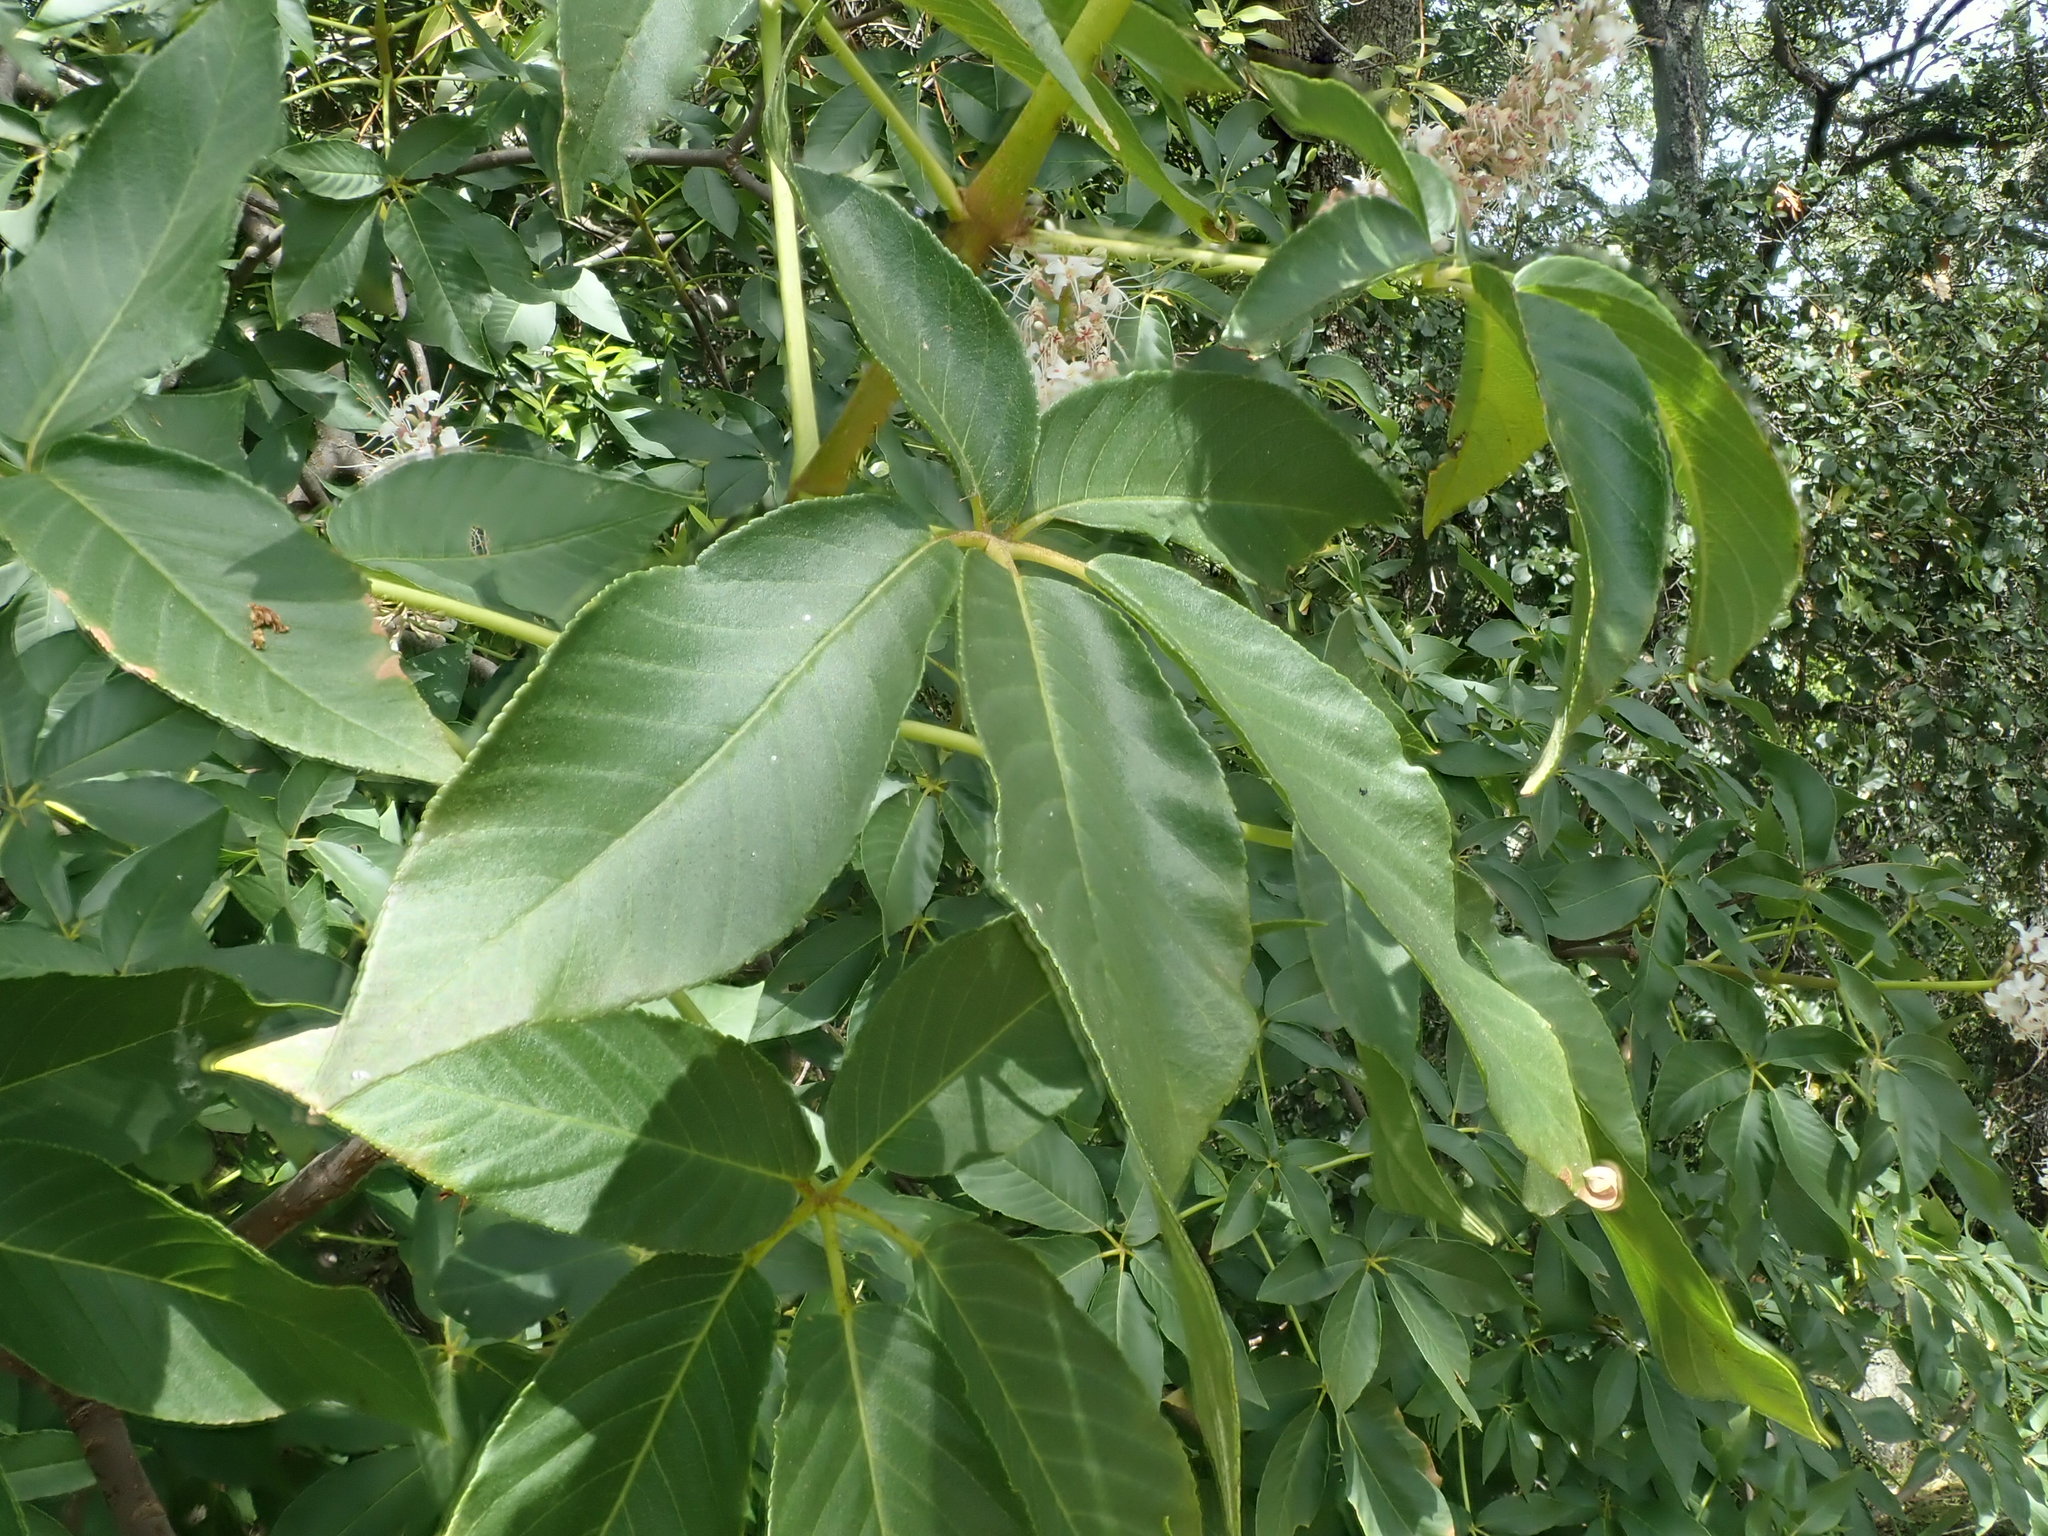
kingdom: Plantae
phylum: Tracheophyta
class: Magnoliopsida
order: Sapindales
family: Sapindaceae
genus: Aesculus
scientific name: Aesculus californica
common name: California buckeye
